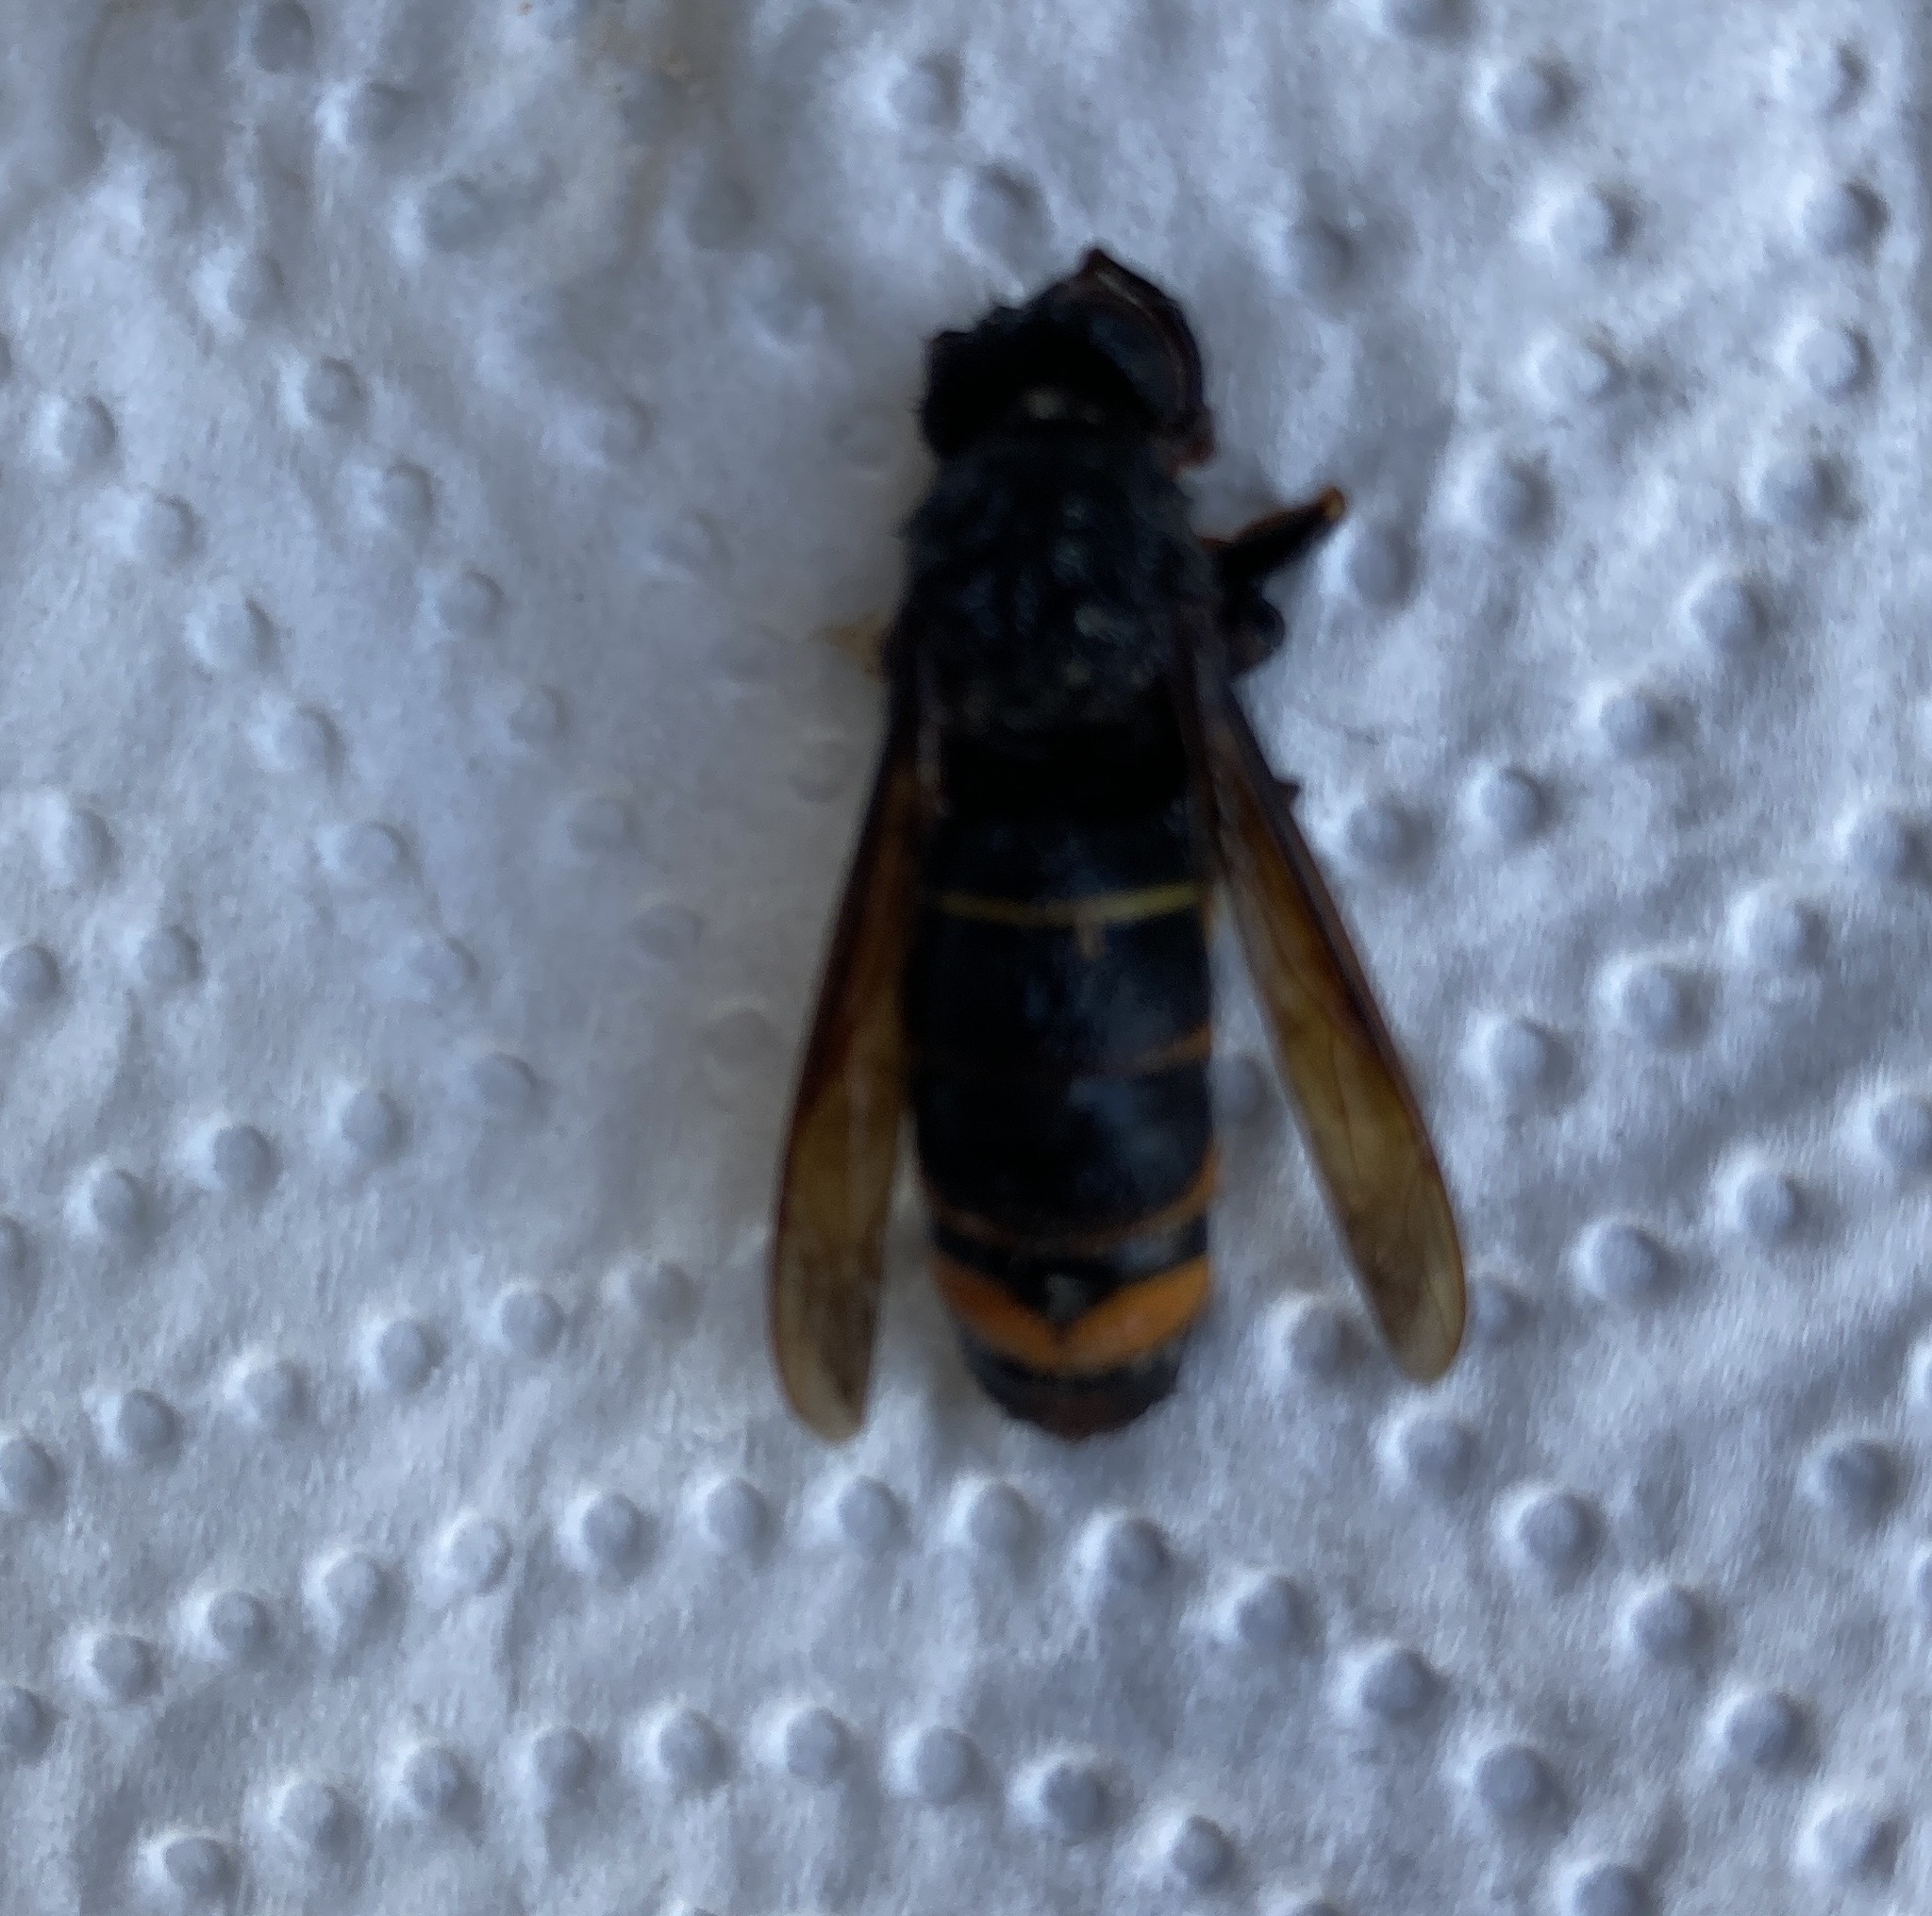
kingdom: Animalia
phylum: Arthropoda
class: Insecta
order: Hymenoptera
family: Vespidae
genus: Vespa
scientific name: Vespa velutina
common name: Asian hornet
